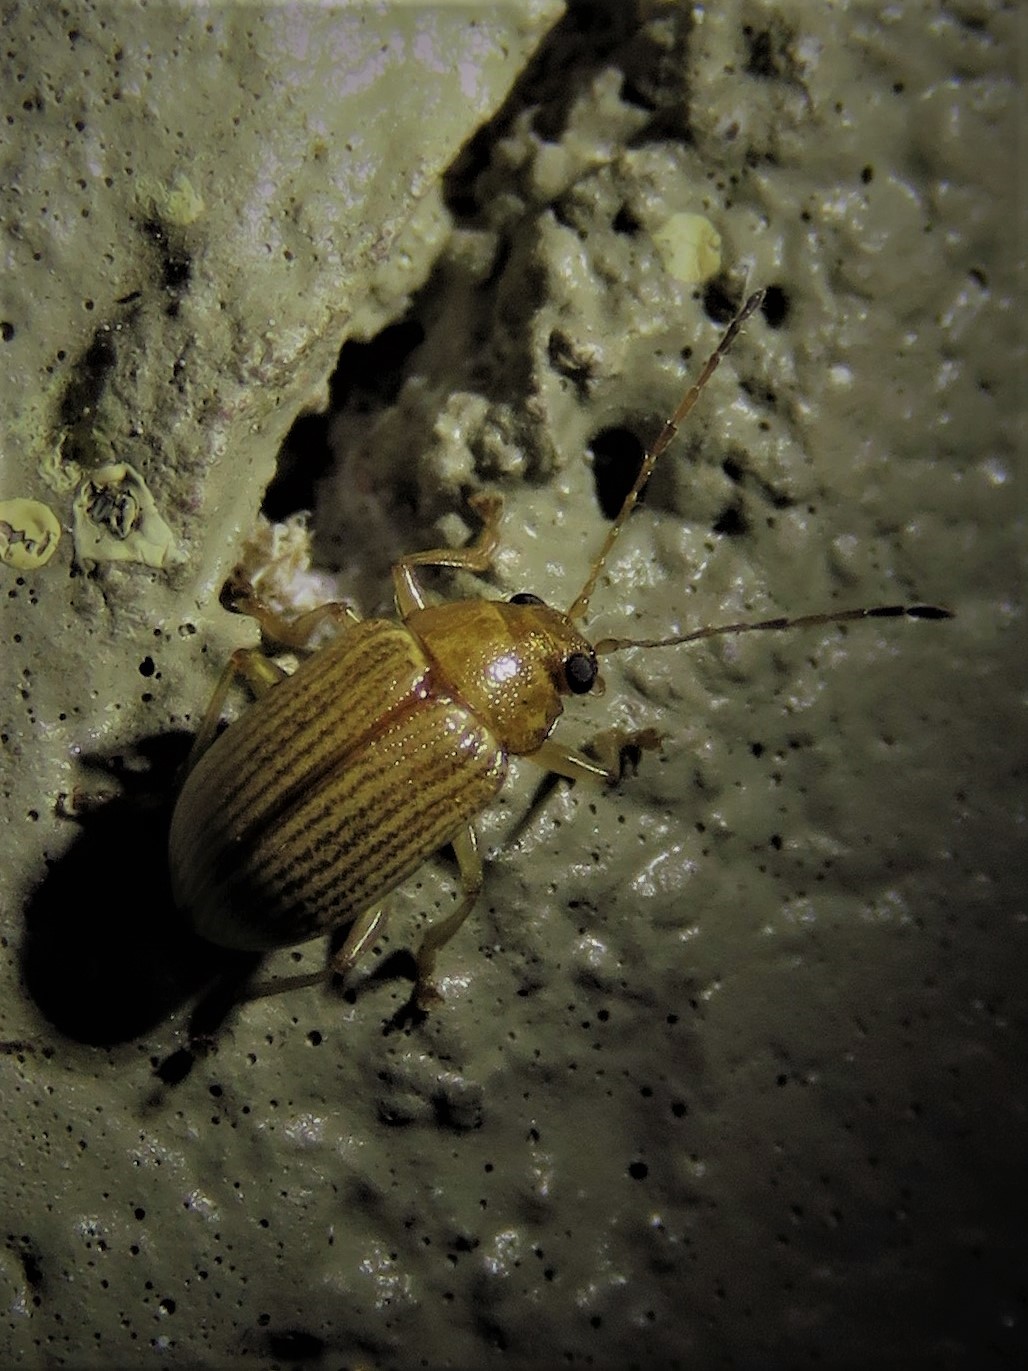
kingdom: Animalia
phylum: Arthropoda
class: Insecta
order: Coleoptera
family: Chrysomelidae
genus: Colaspis
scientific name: Colaspis brunnea
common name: Grape colaspis
